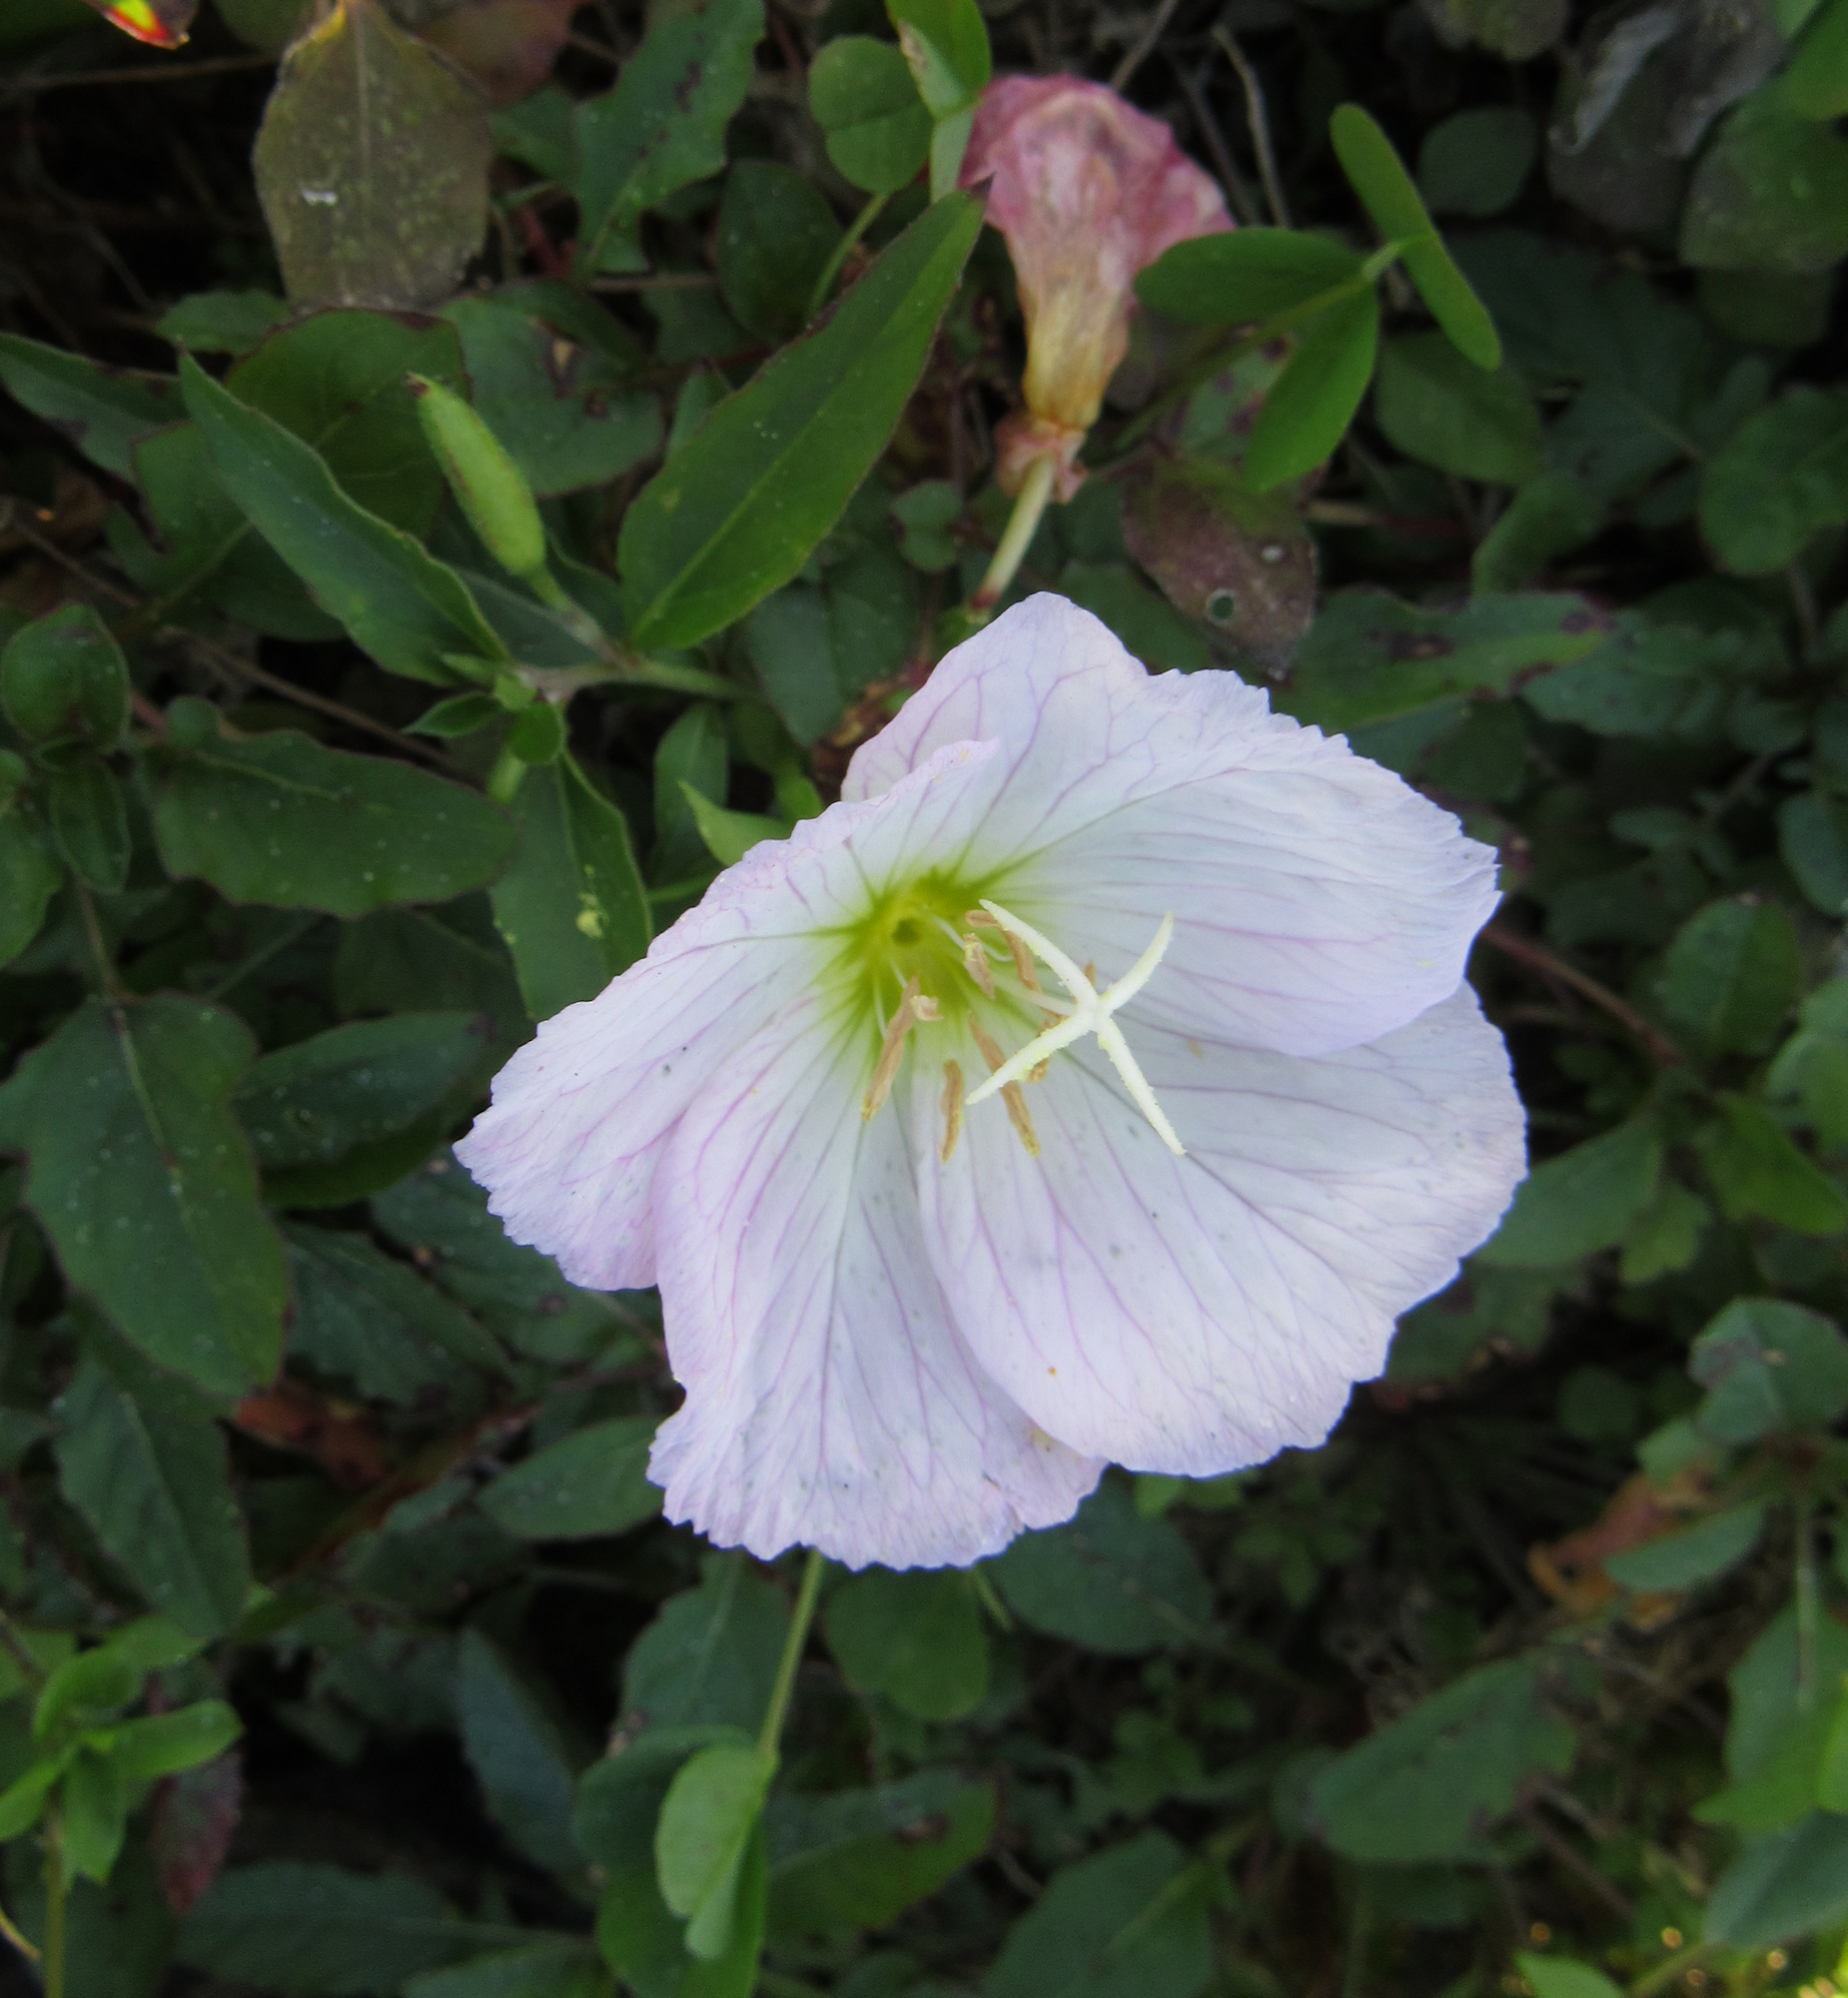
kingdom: Plantae
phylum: Tracheophyta
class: Magnoliopsida
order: Myrtales
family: Onagraceae
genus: Oenothera
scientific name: Oenothera speciosa
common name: White evening-primrose
